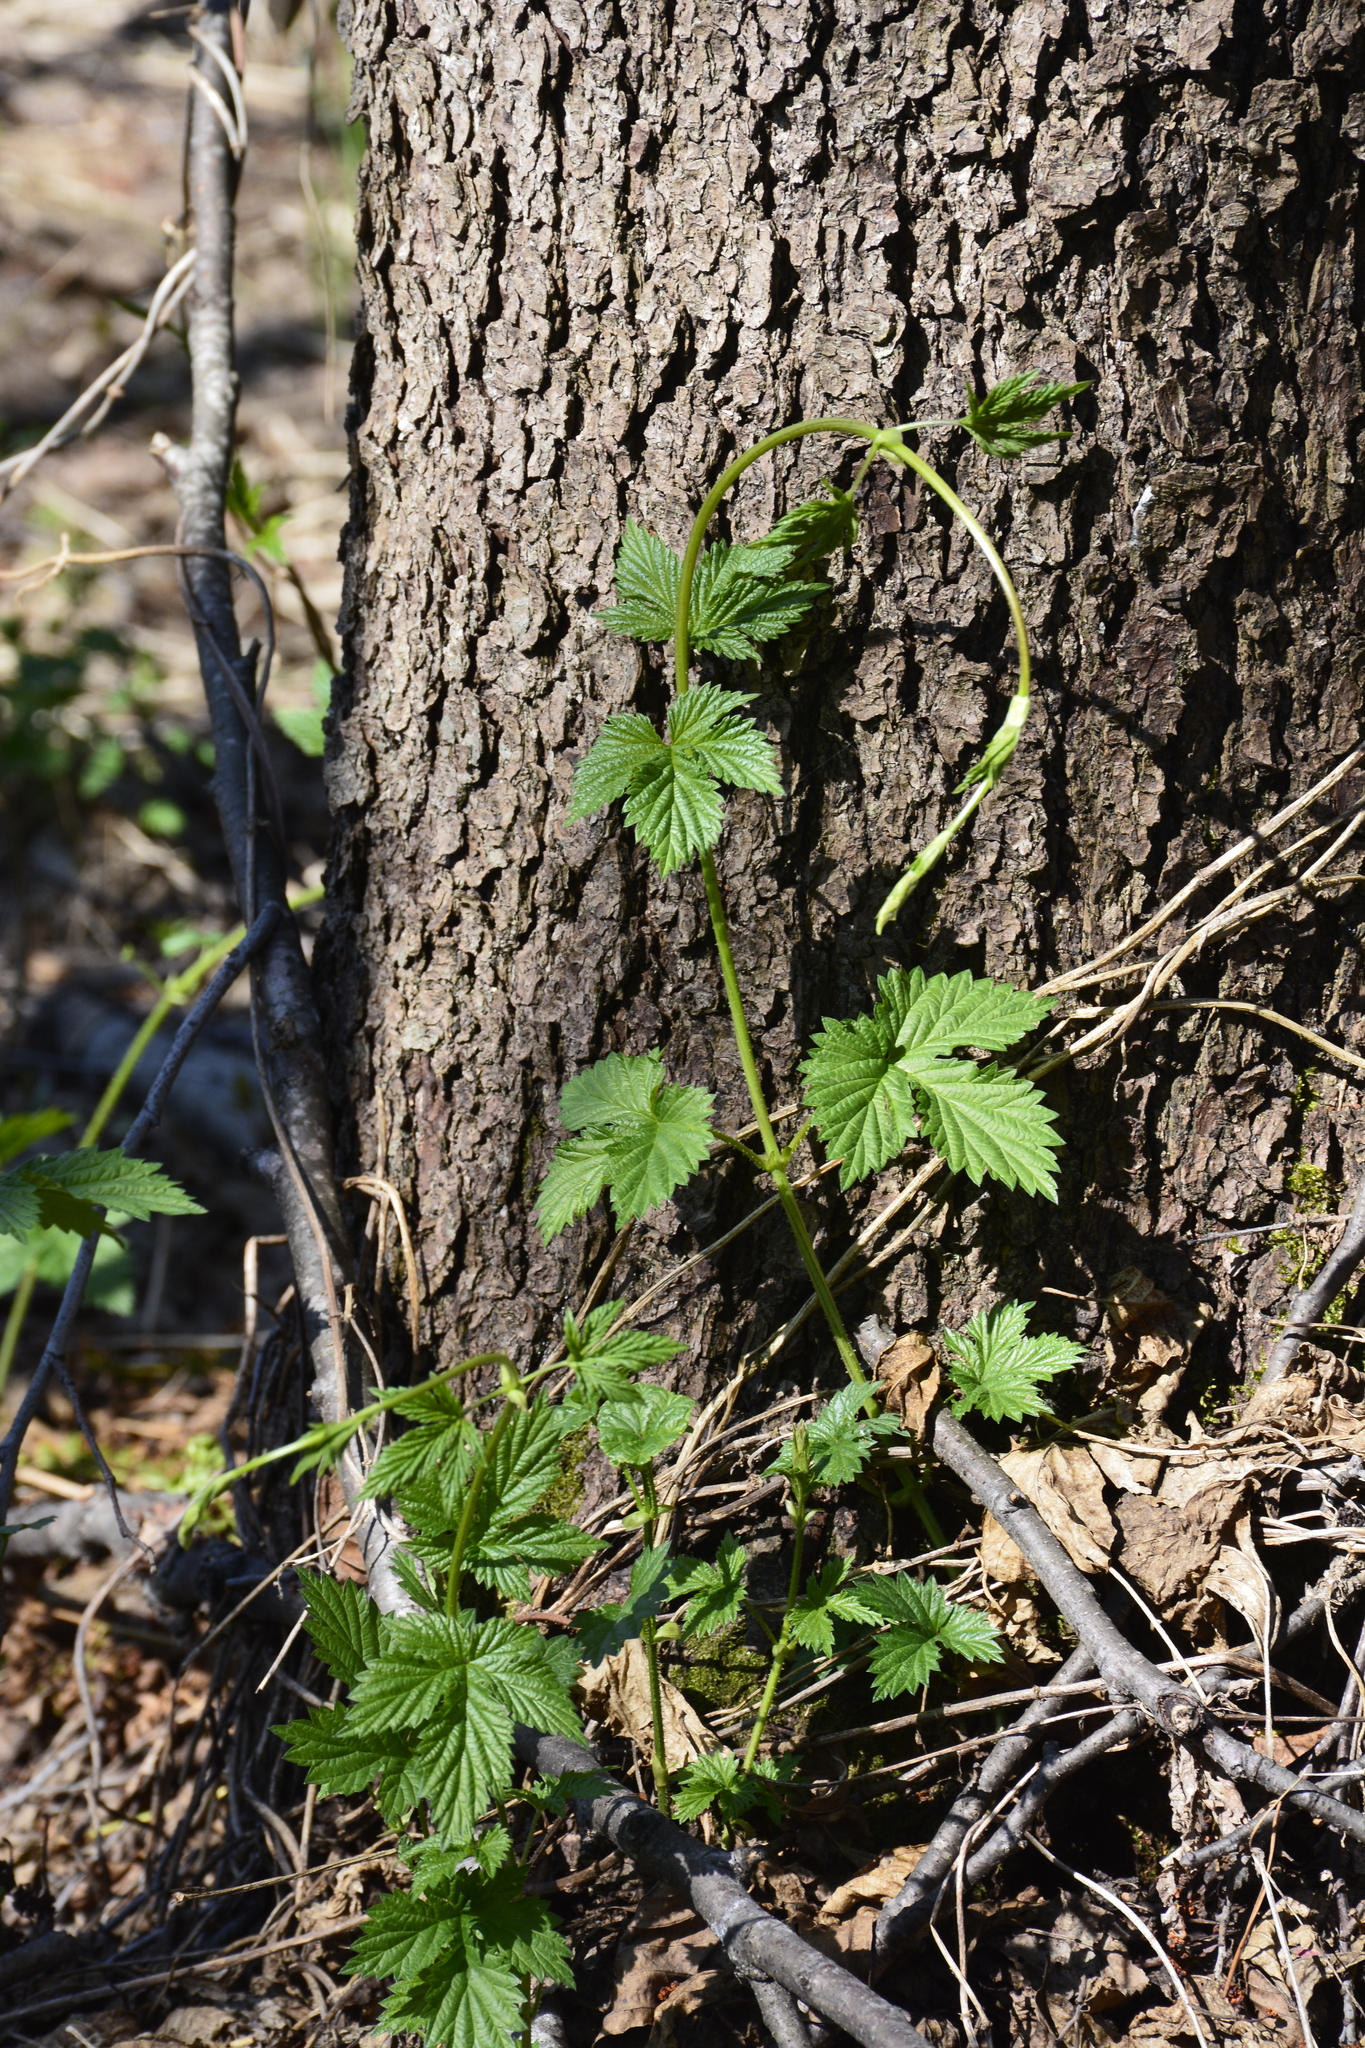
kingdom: Plantae
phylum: Tracheophyta
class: Magnoliopsida
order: Rosales
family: Cannabaceae
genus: Humulus
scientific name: Humulus lupulus
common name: Hop
